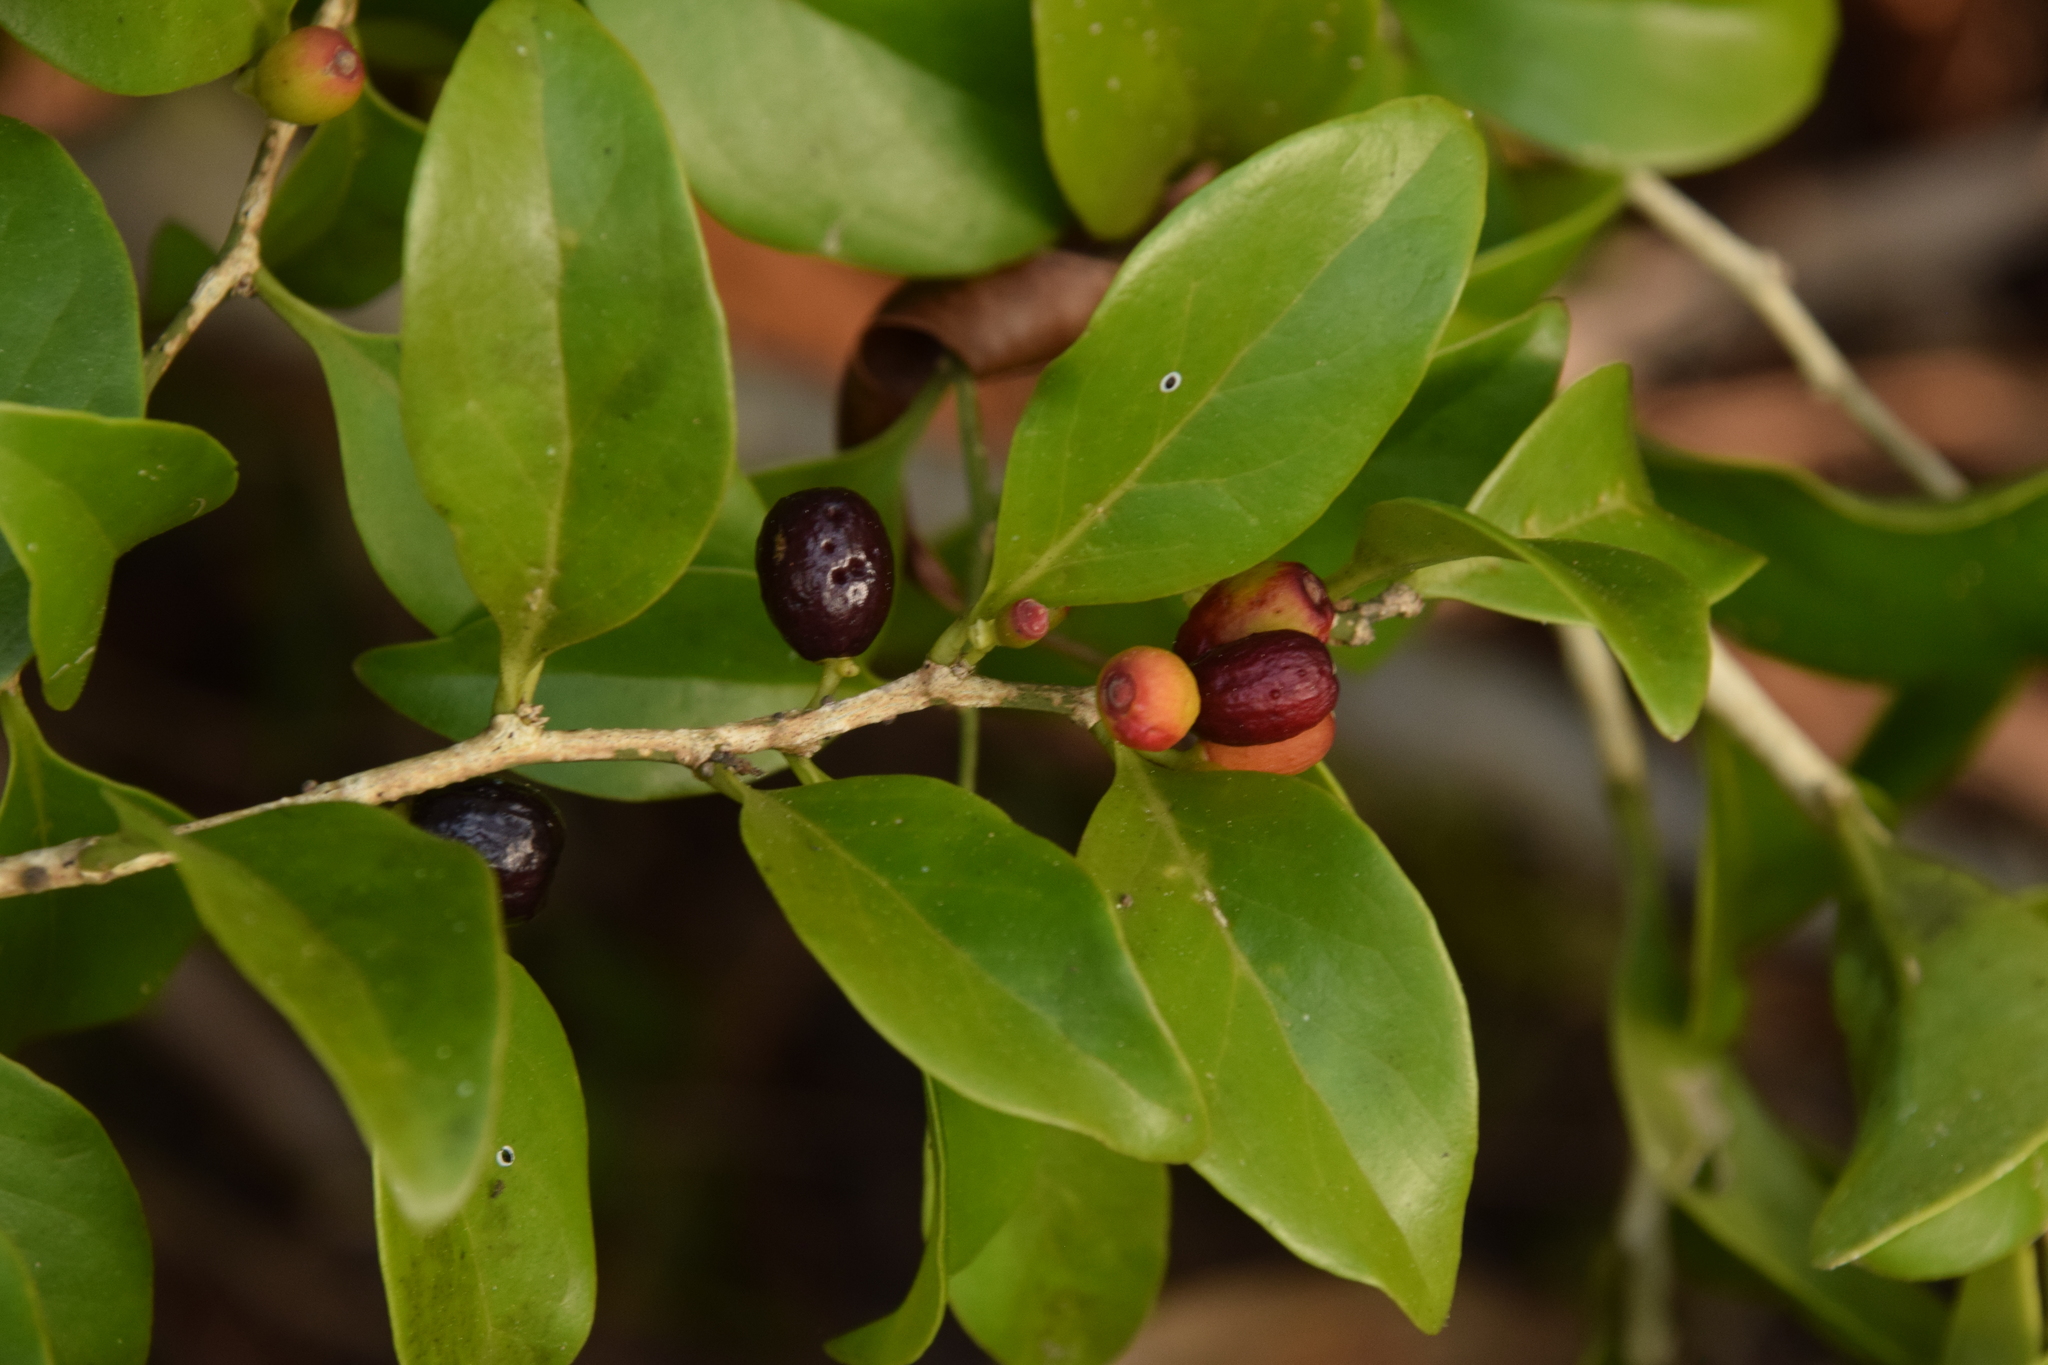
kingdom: Plantae
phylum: Tracheophyta
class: Magnoliopsida
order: Santalales
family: Schoepfiaceae
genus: Schoepfia
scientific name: Schoepfia schreberi
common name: Gulf graytwig
